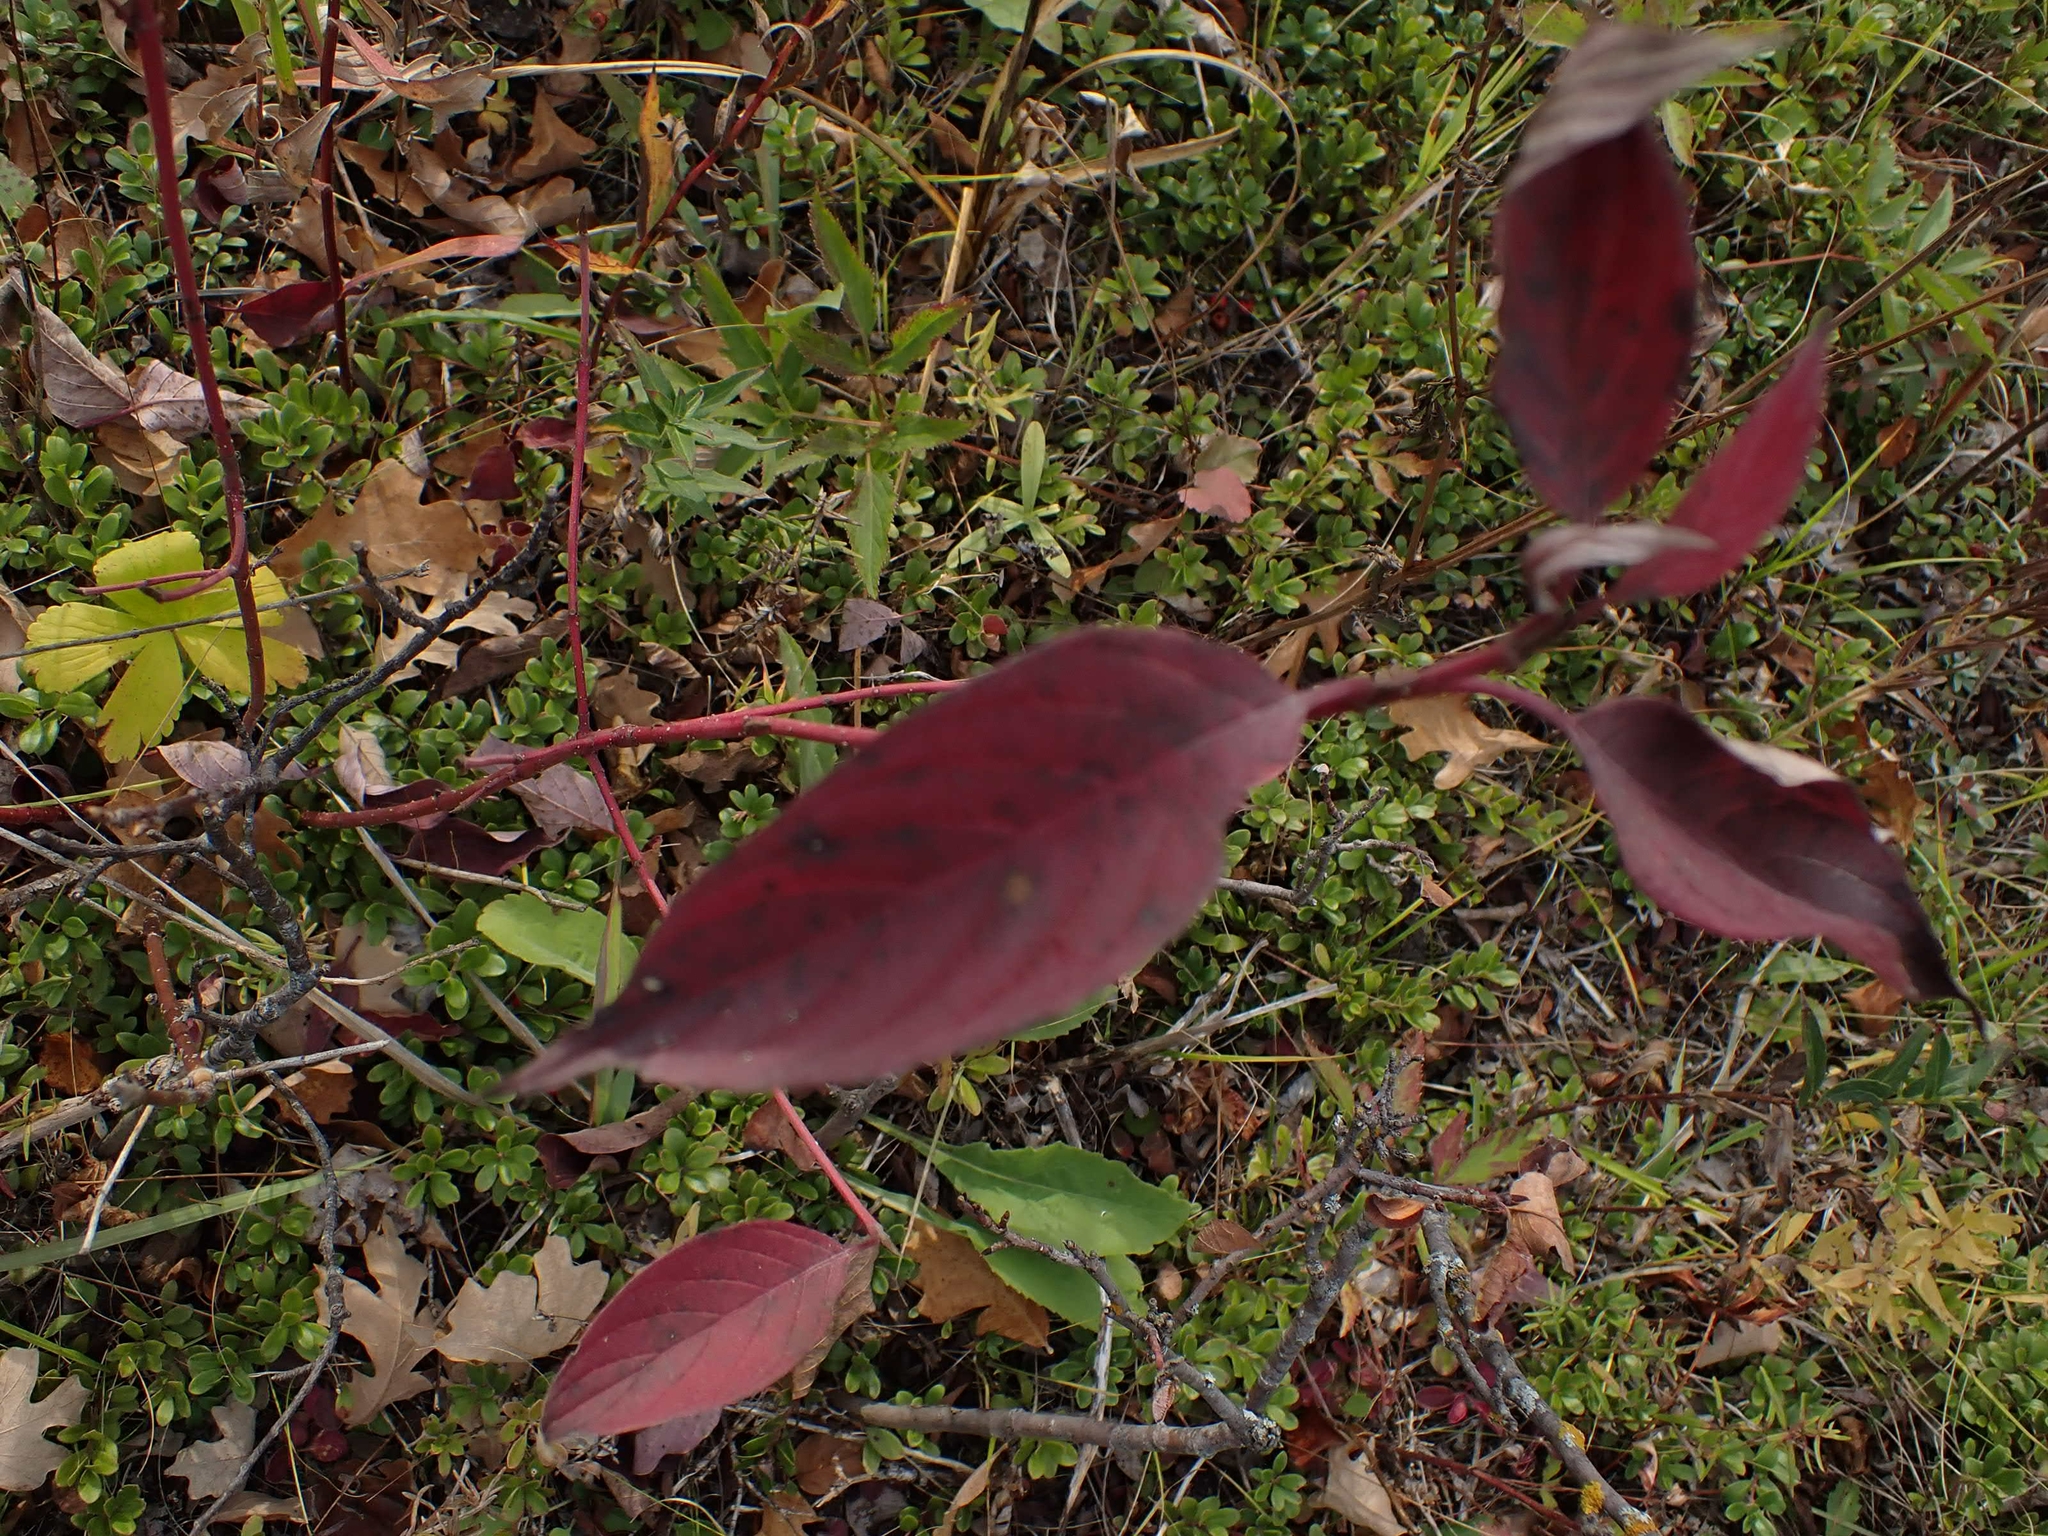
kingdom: Plantae
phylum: Tracheophyta
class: Magnoliopsida
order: Cornales
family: Cornaceae
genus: Cornus
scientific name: Cornus sericea
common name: Red-osier dogwood
